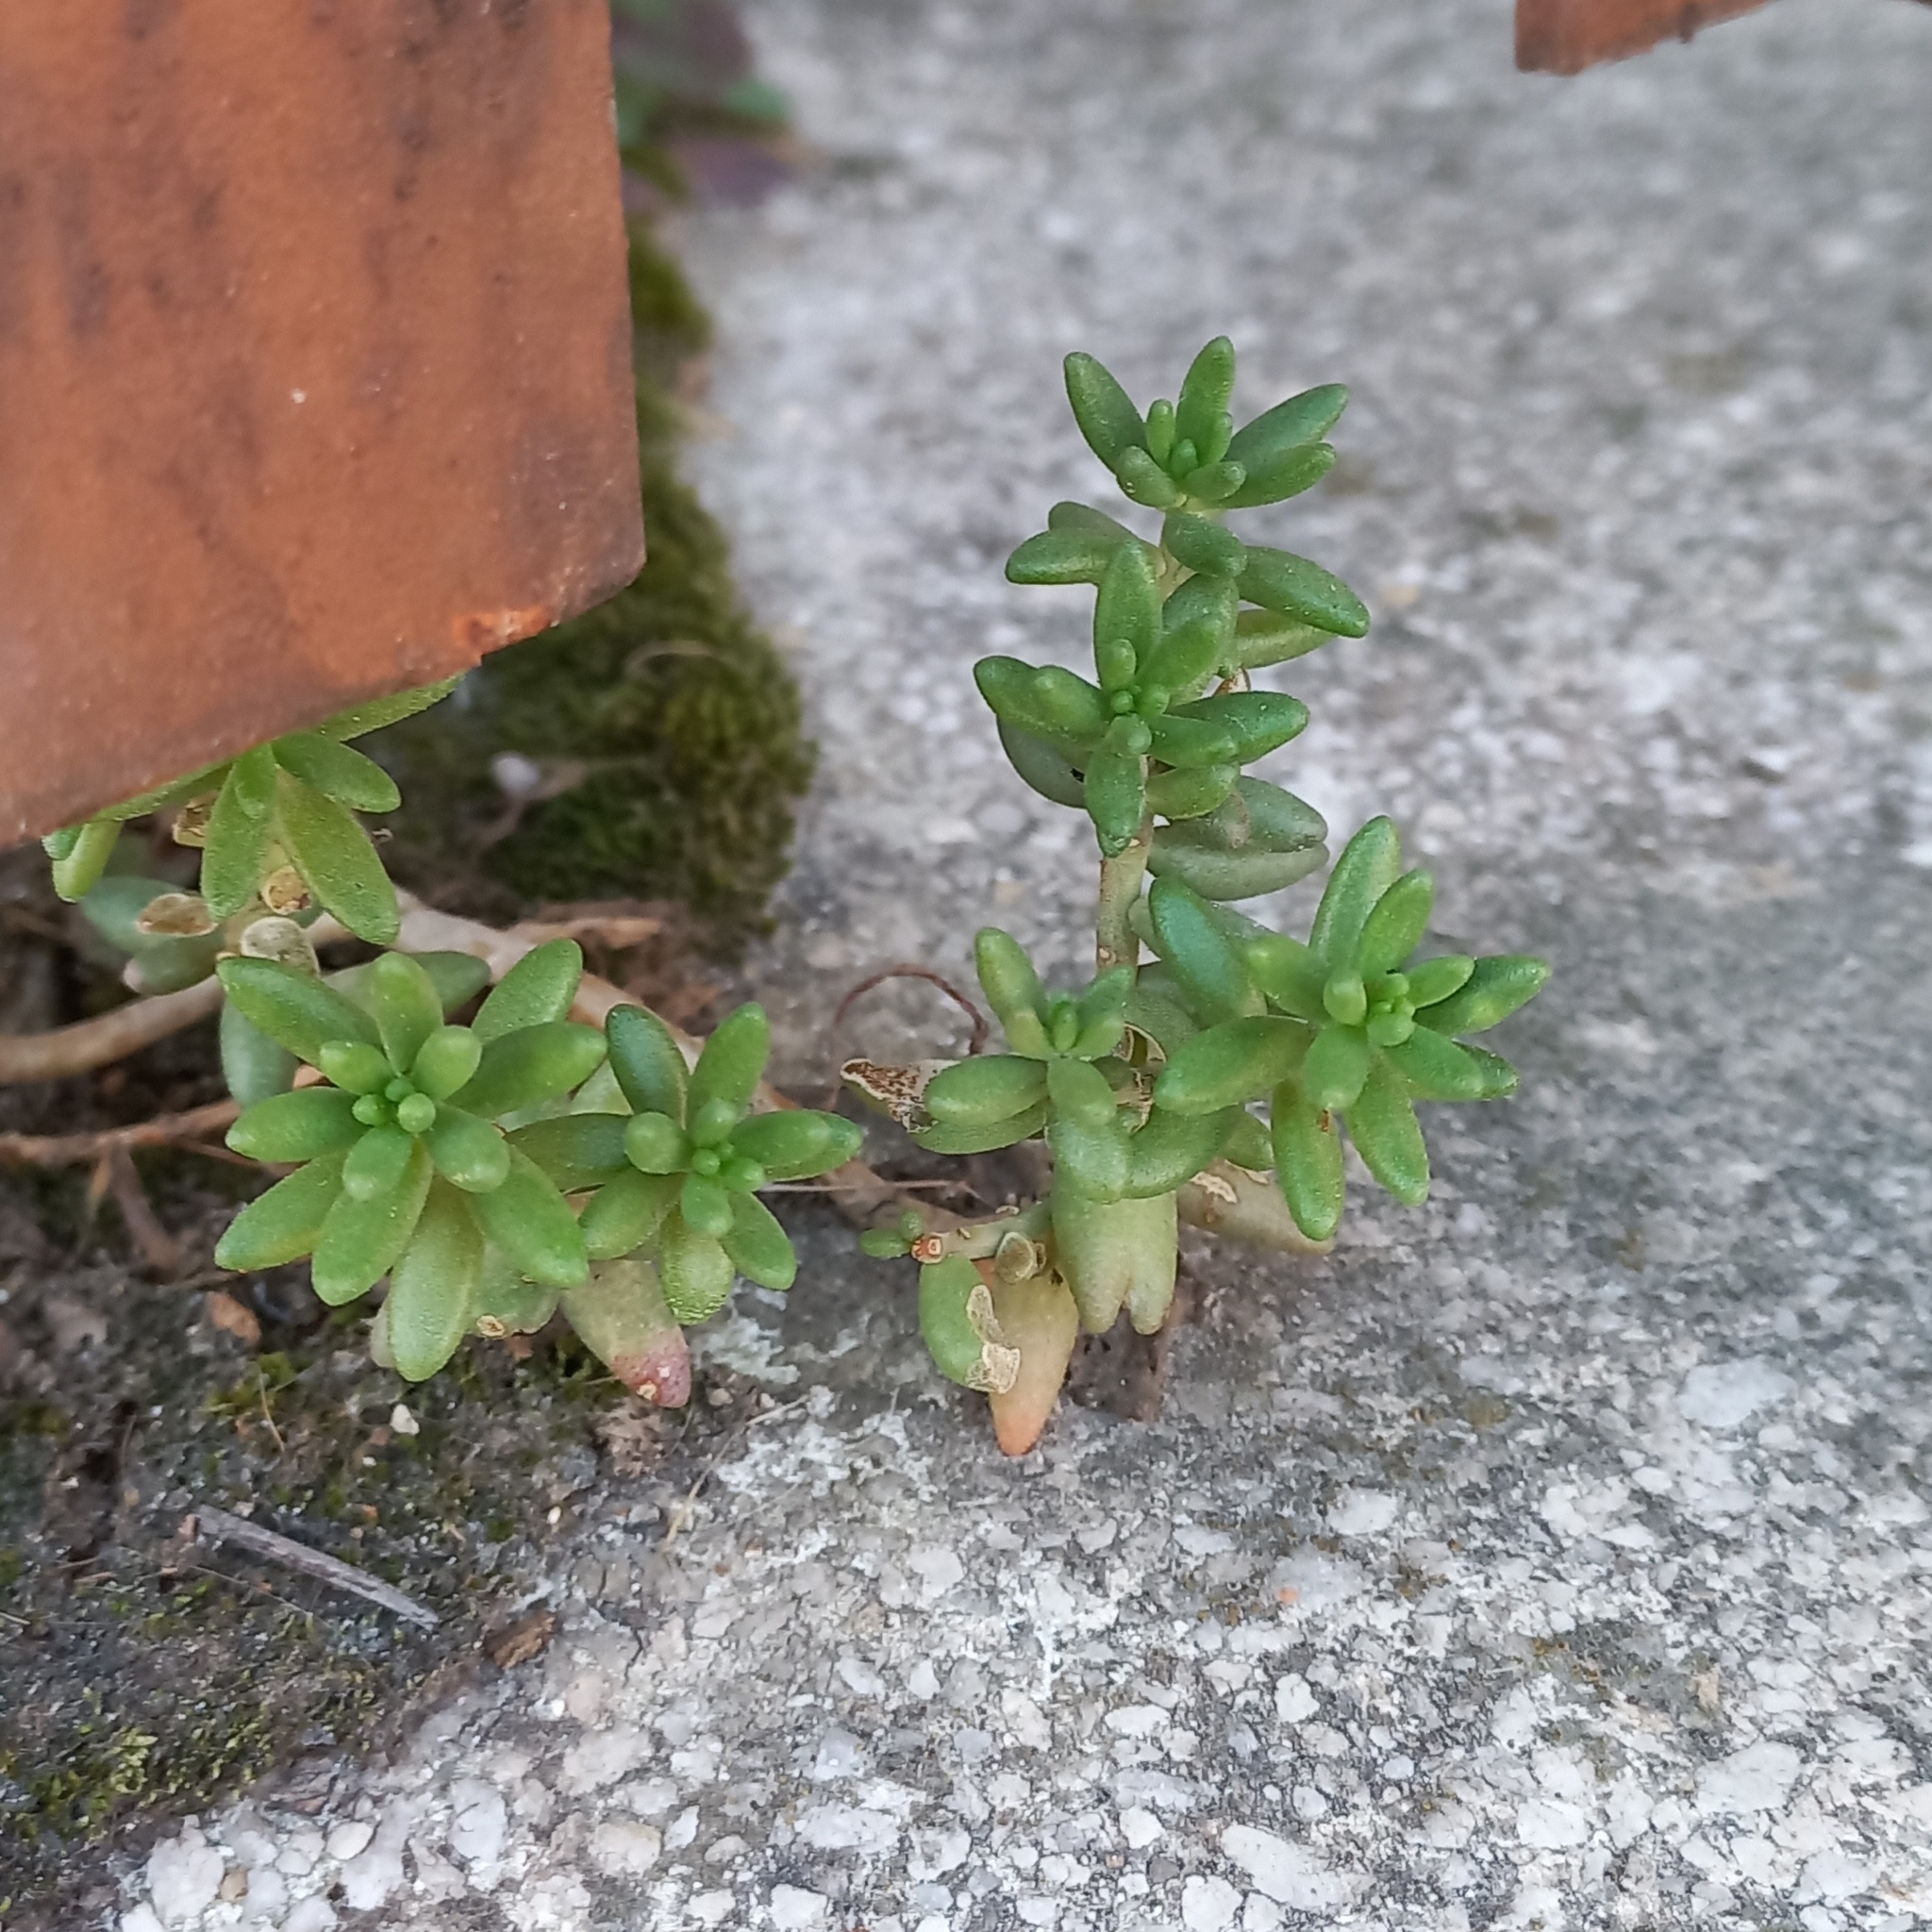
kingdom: Plantae
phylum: Tracheophyta
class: Magnoliopsida
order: Saxifragales
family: Crassulaceae
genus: Sedum
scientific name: Sedum album
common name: White stonecrop
